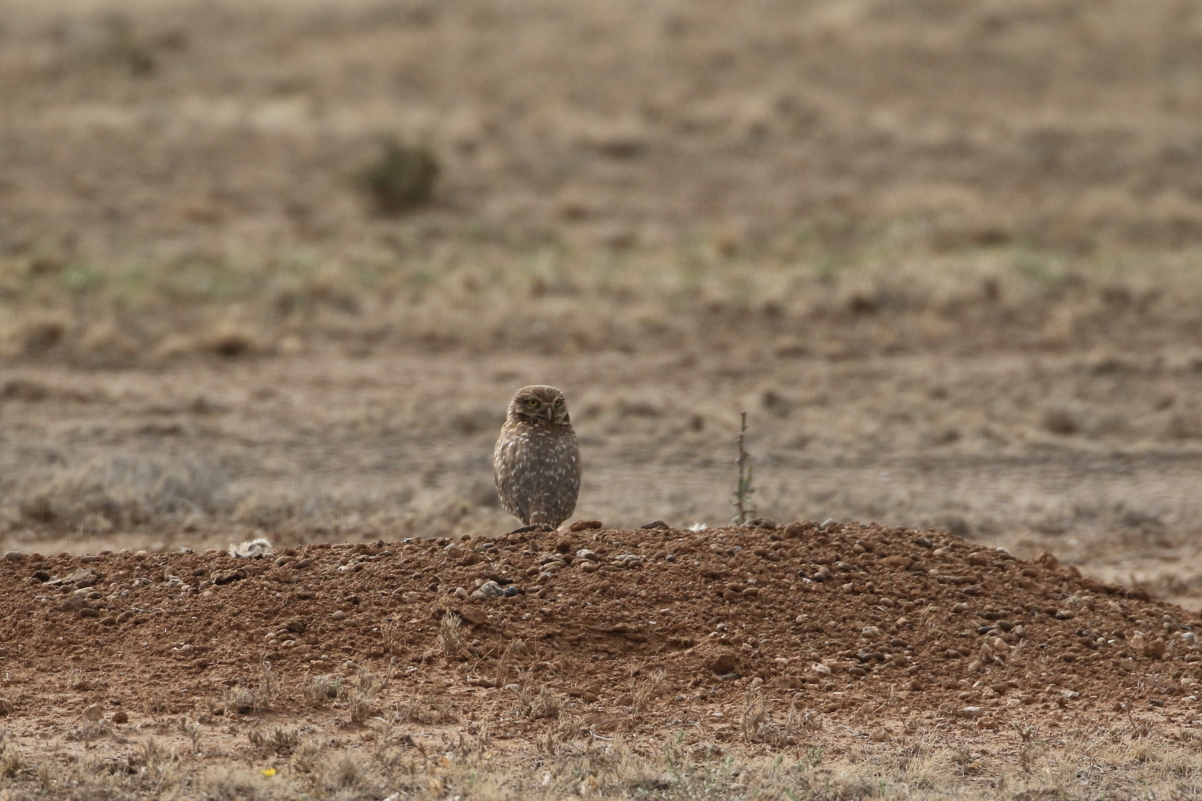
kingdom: Animalia
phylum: Chordata
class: Aves
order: Strigiformes
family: Strigidae
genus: Athene
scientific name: Athene cunicularia
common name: Burrowing owl
